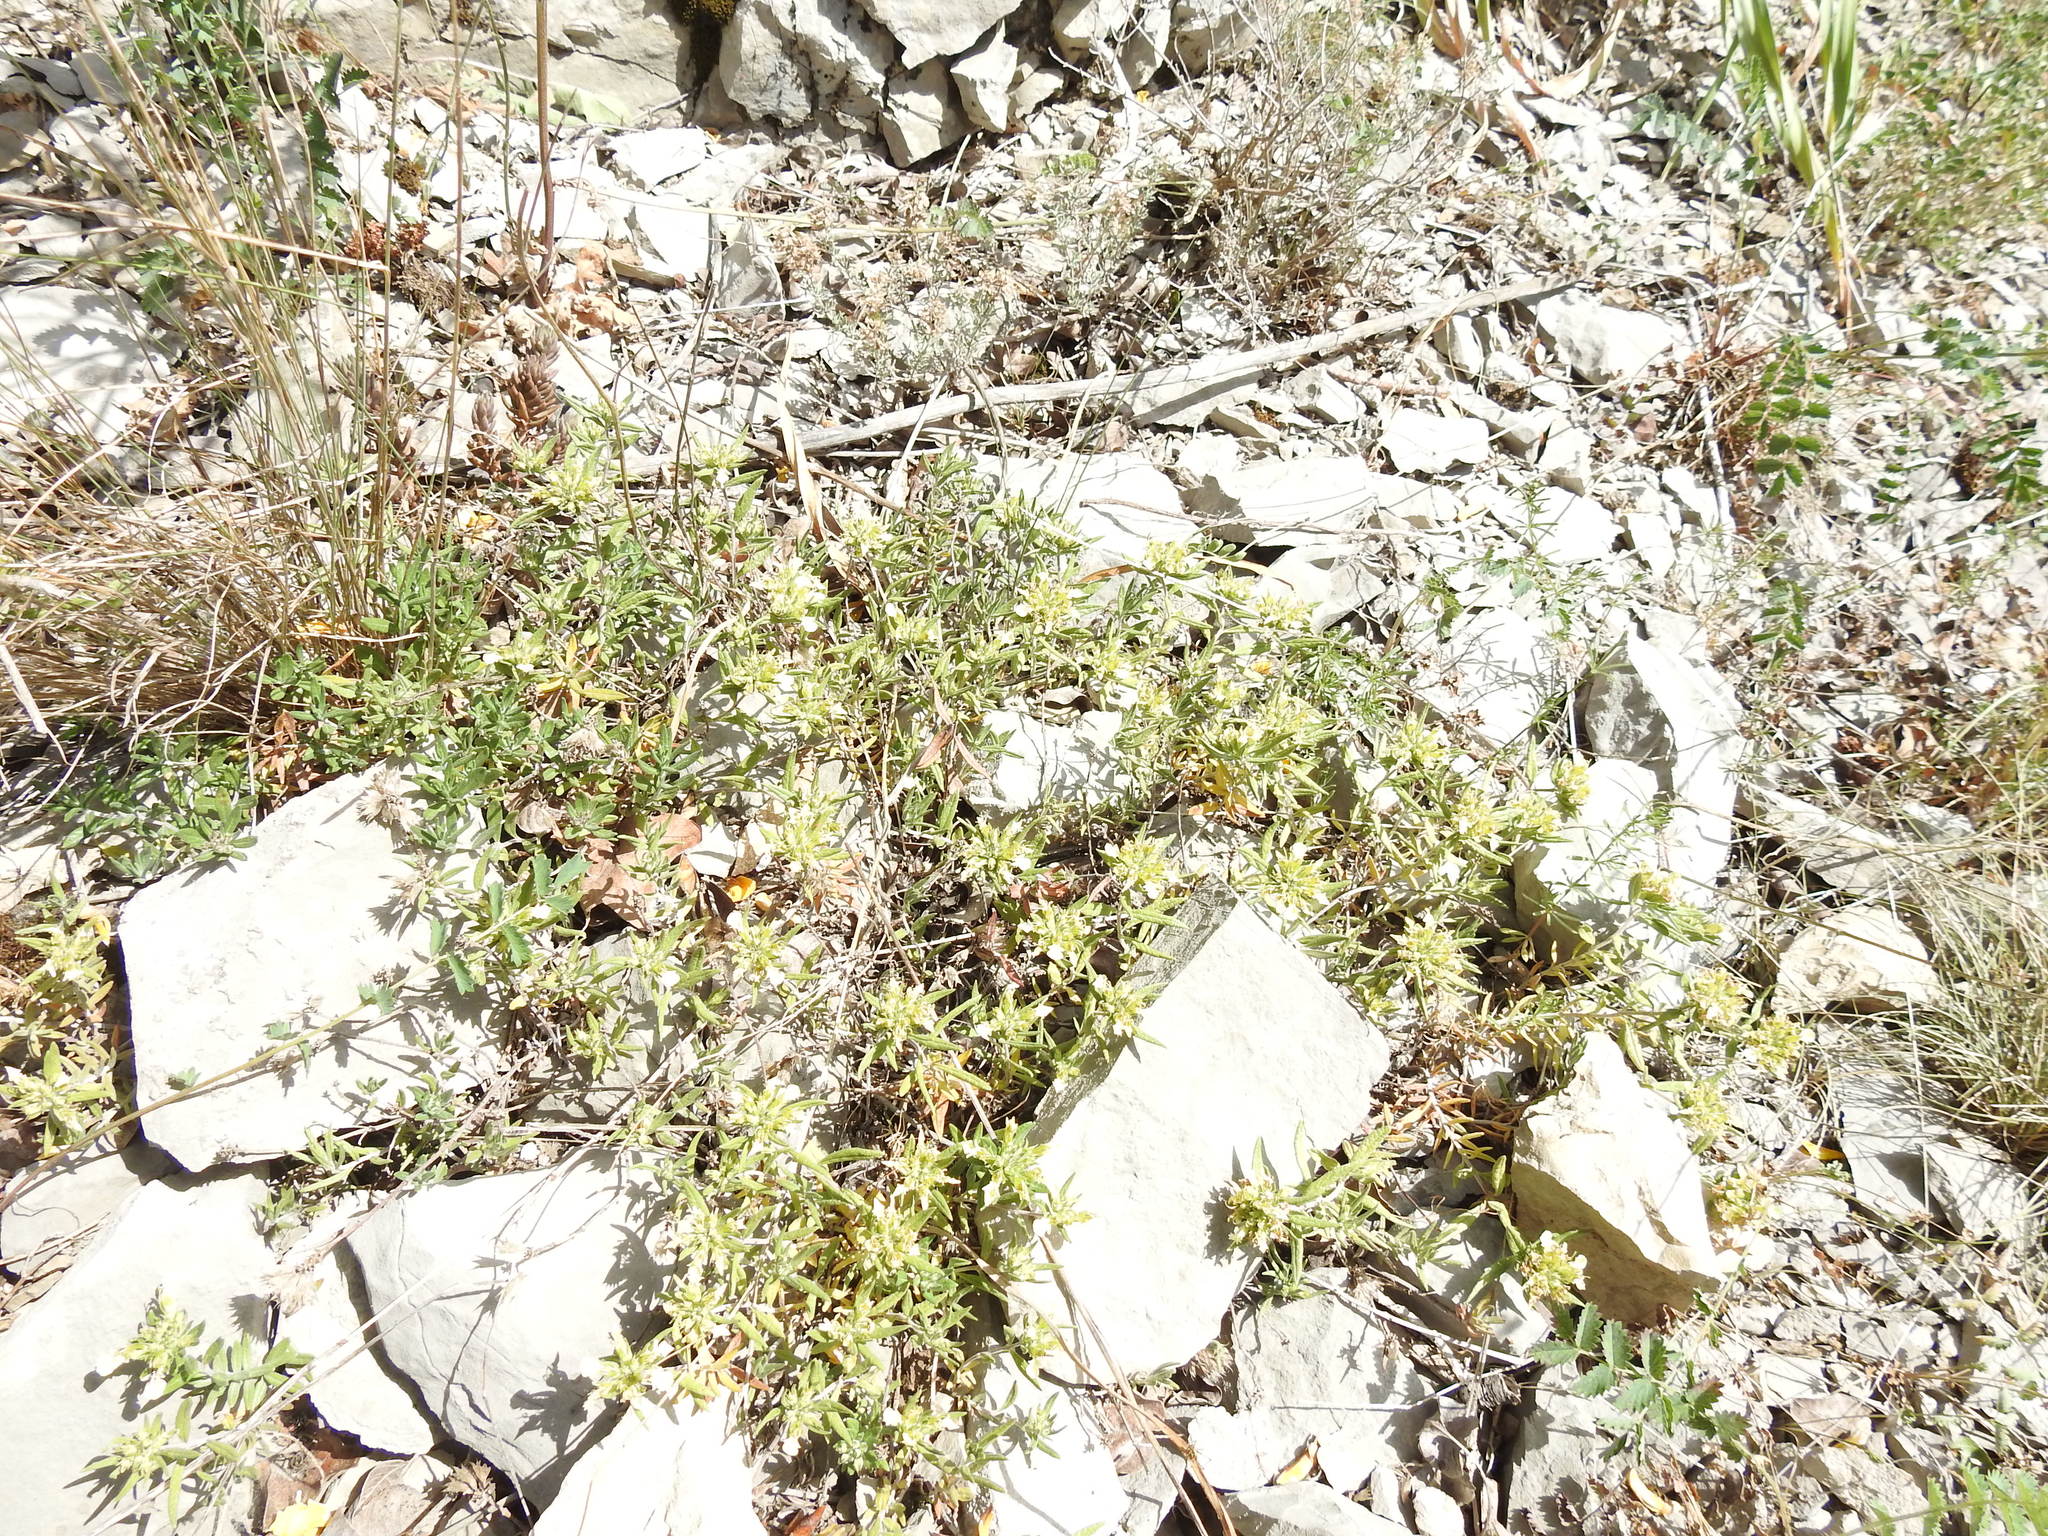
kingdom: Plantae
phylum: Tracheophyta
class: Magnoliopsida
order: Lamiales
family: Lamiaceae
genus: Teucrium
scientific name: Teucrium montanum
